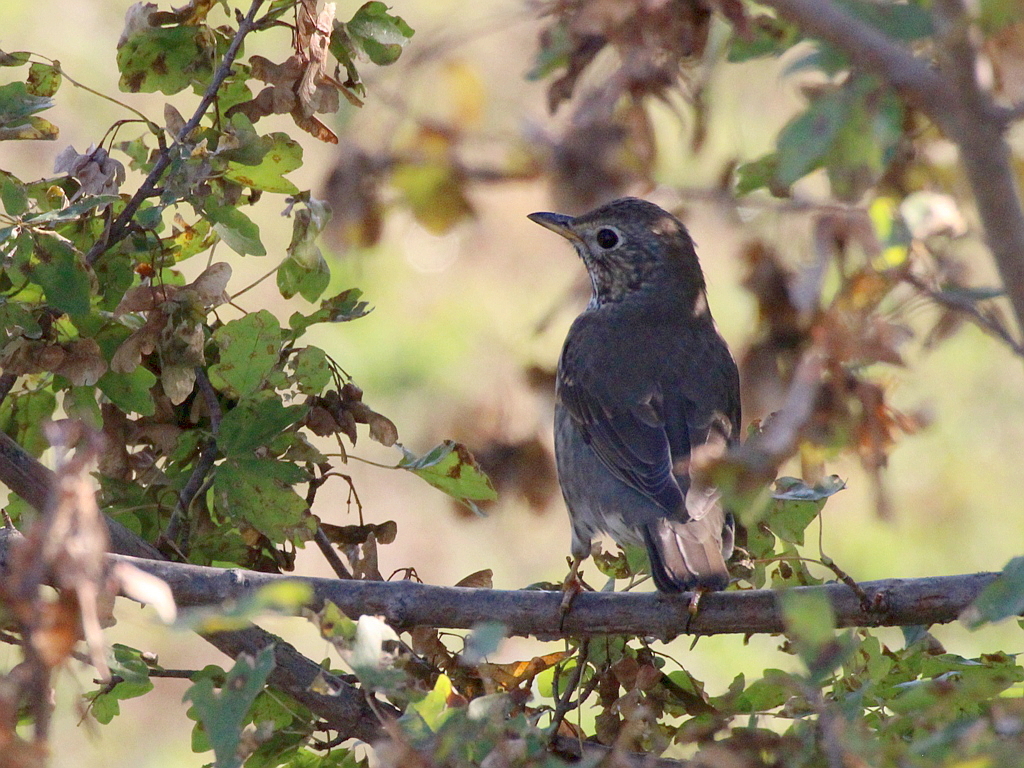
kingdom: Animalia
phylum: Chordata
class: Aves
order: Passeriformes
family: Turdidae
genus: Turdus
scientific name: Turdus philomelos
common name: Song thrush
